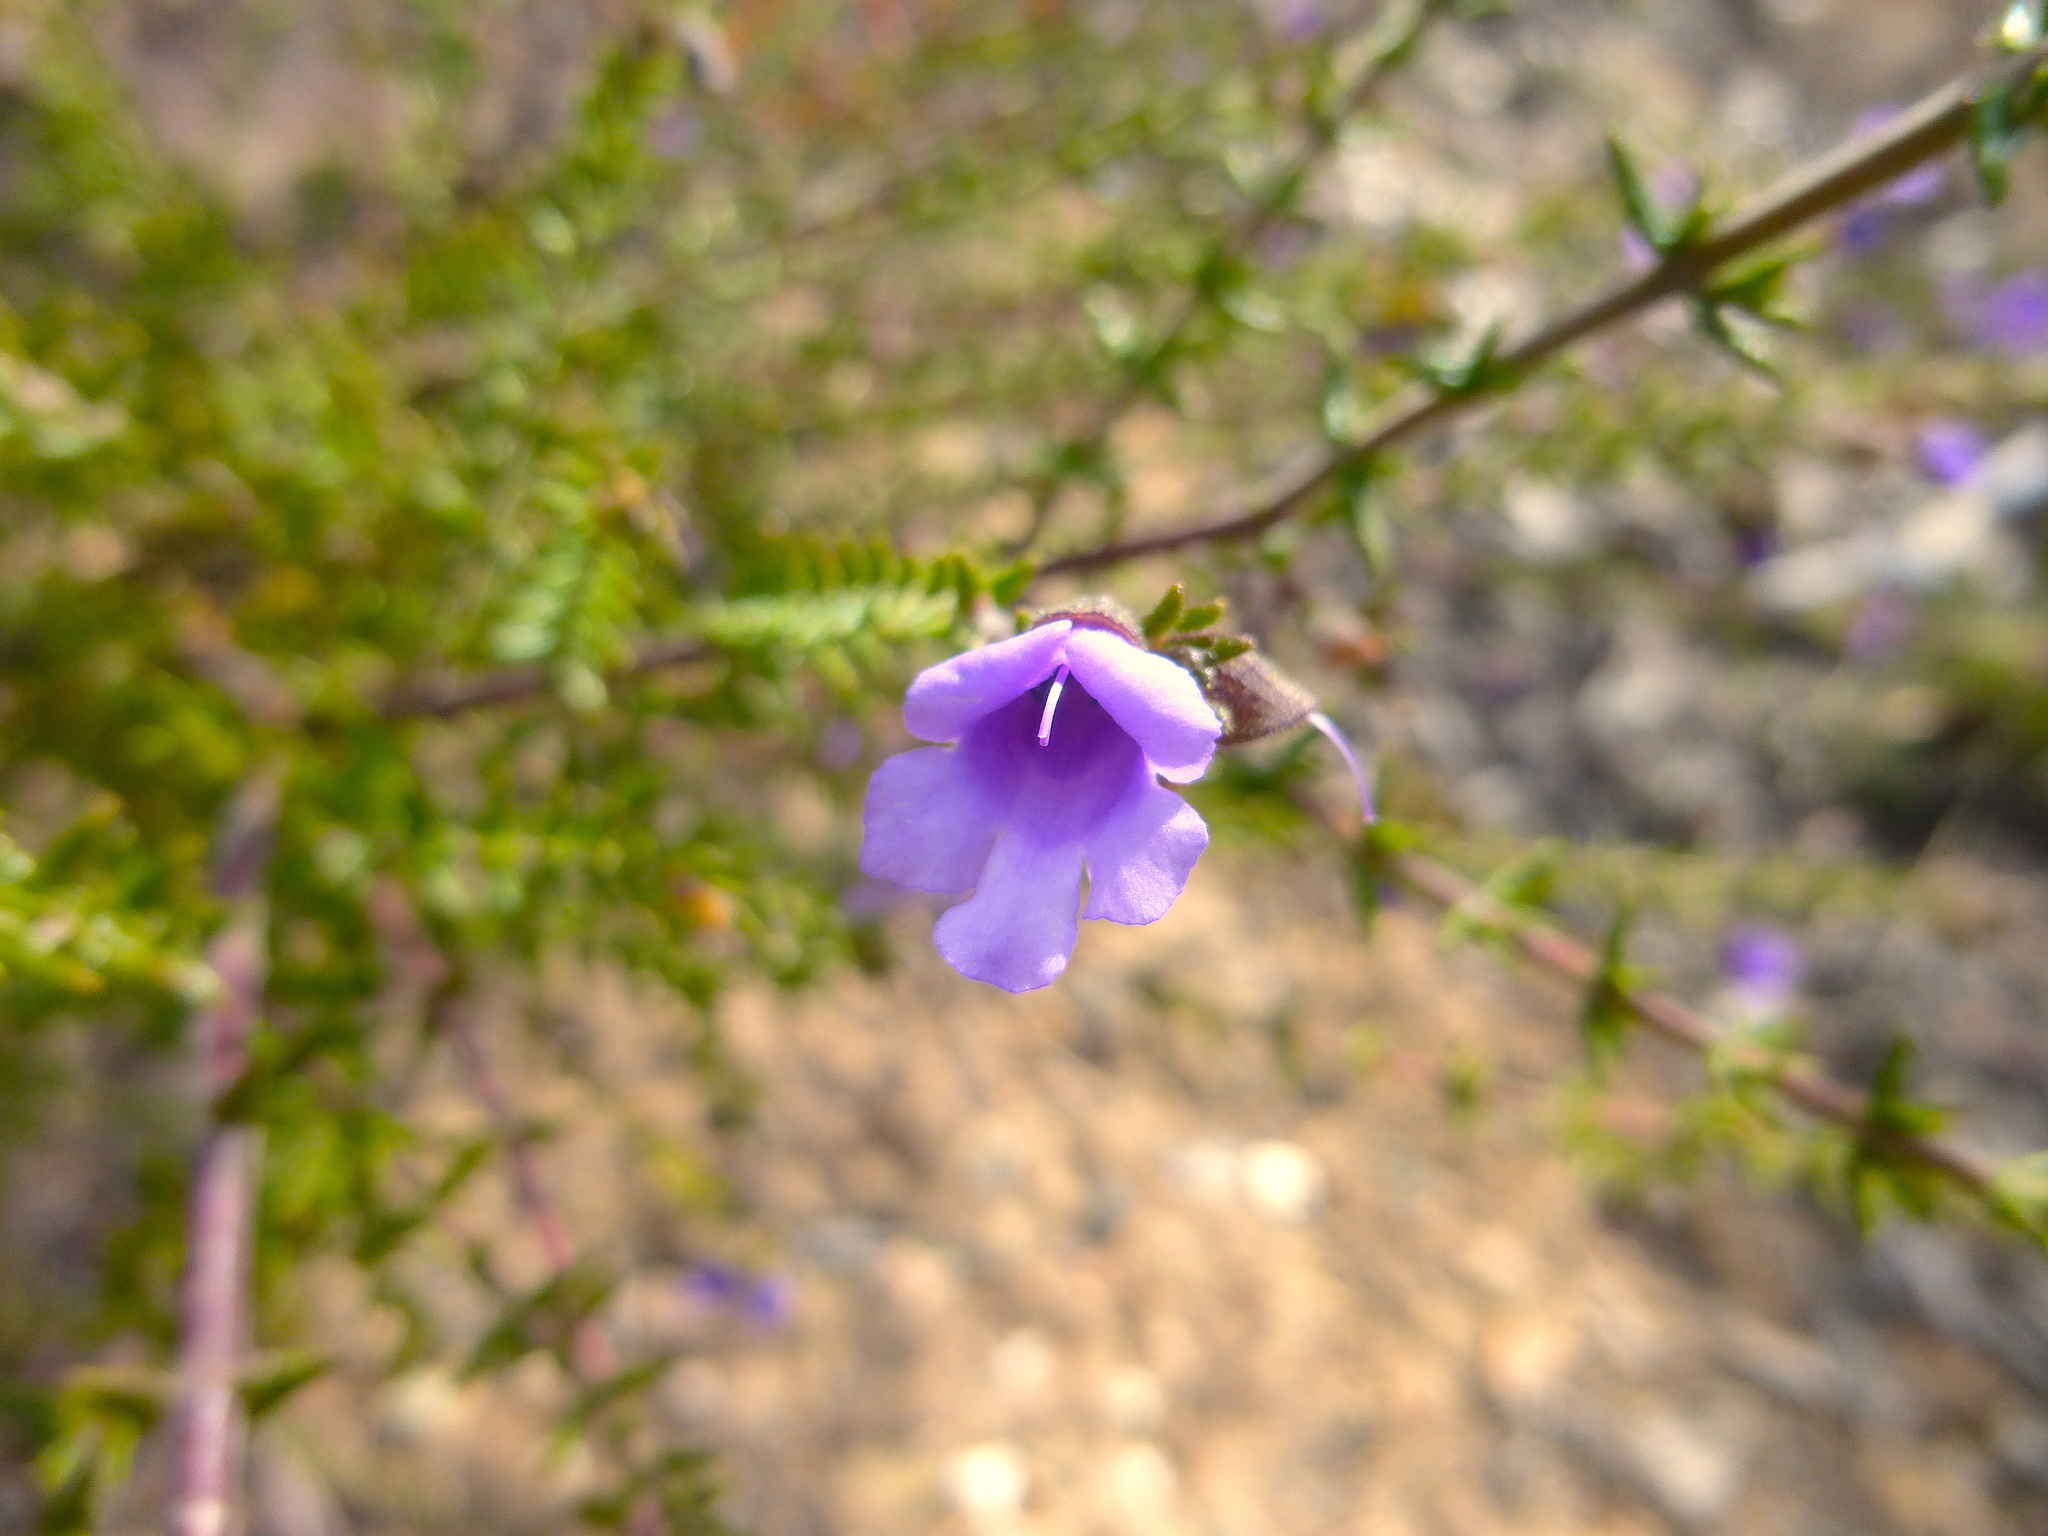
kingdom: Plantae
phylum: Tracheophyta
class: Magnoliopsida
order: Lamiales
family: Lamiaceae
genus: Prostanthera
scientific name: Prostanthera decussata
